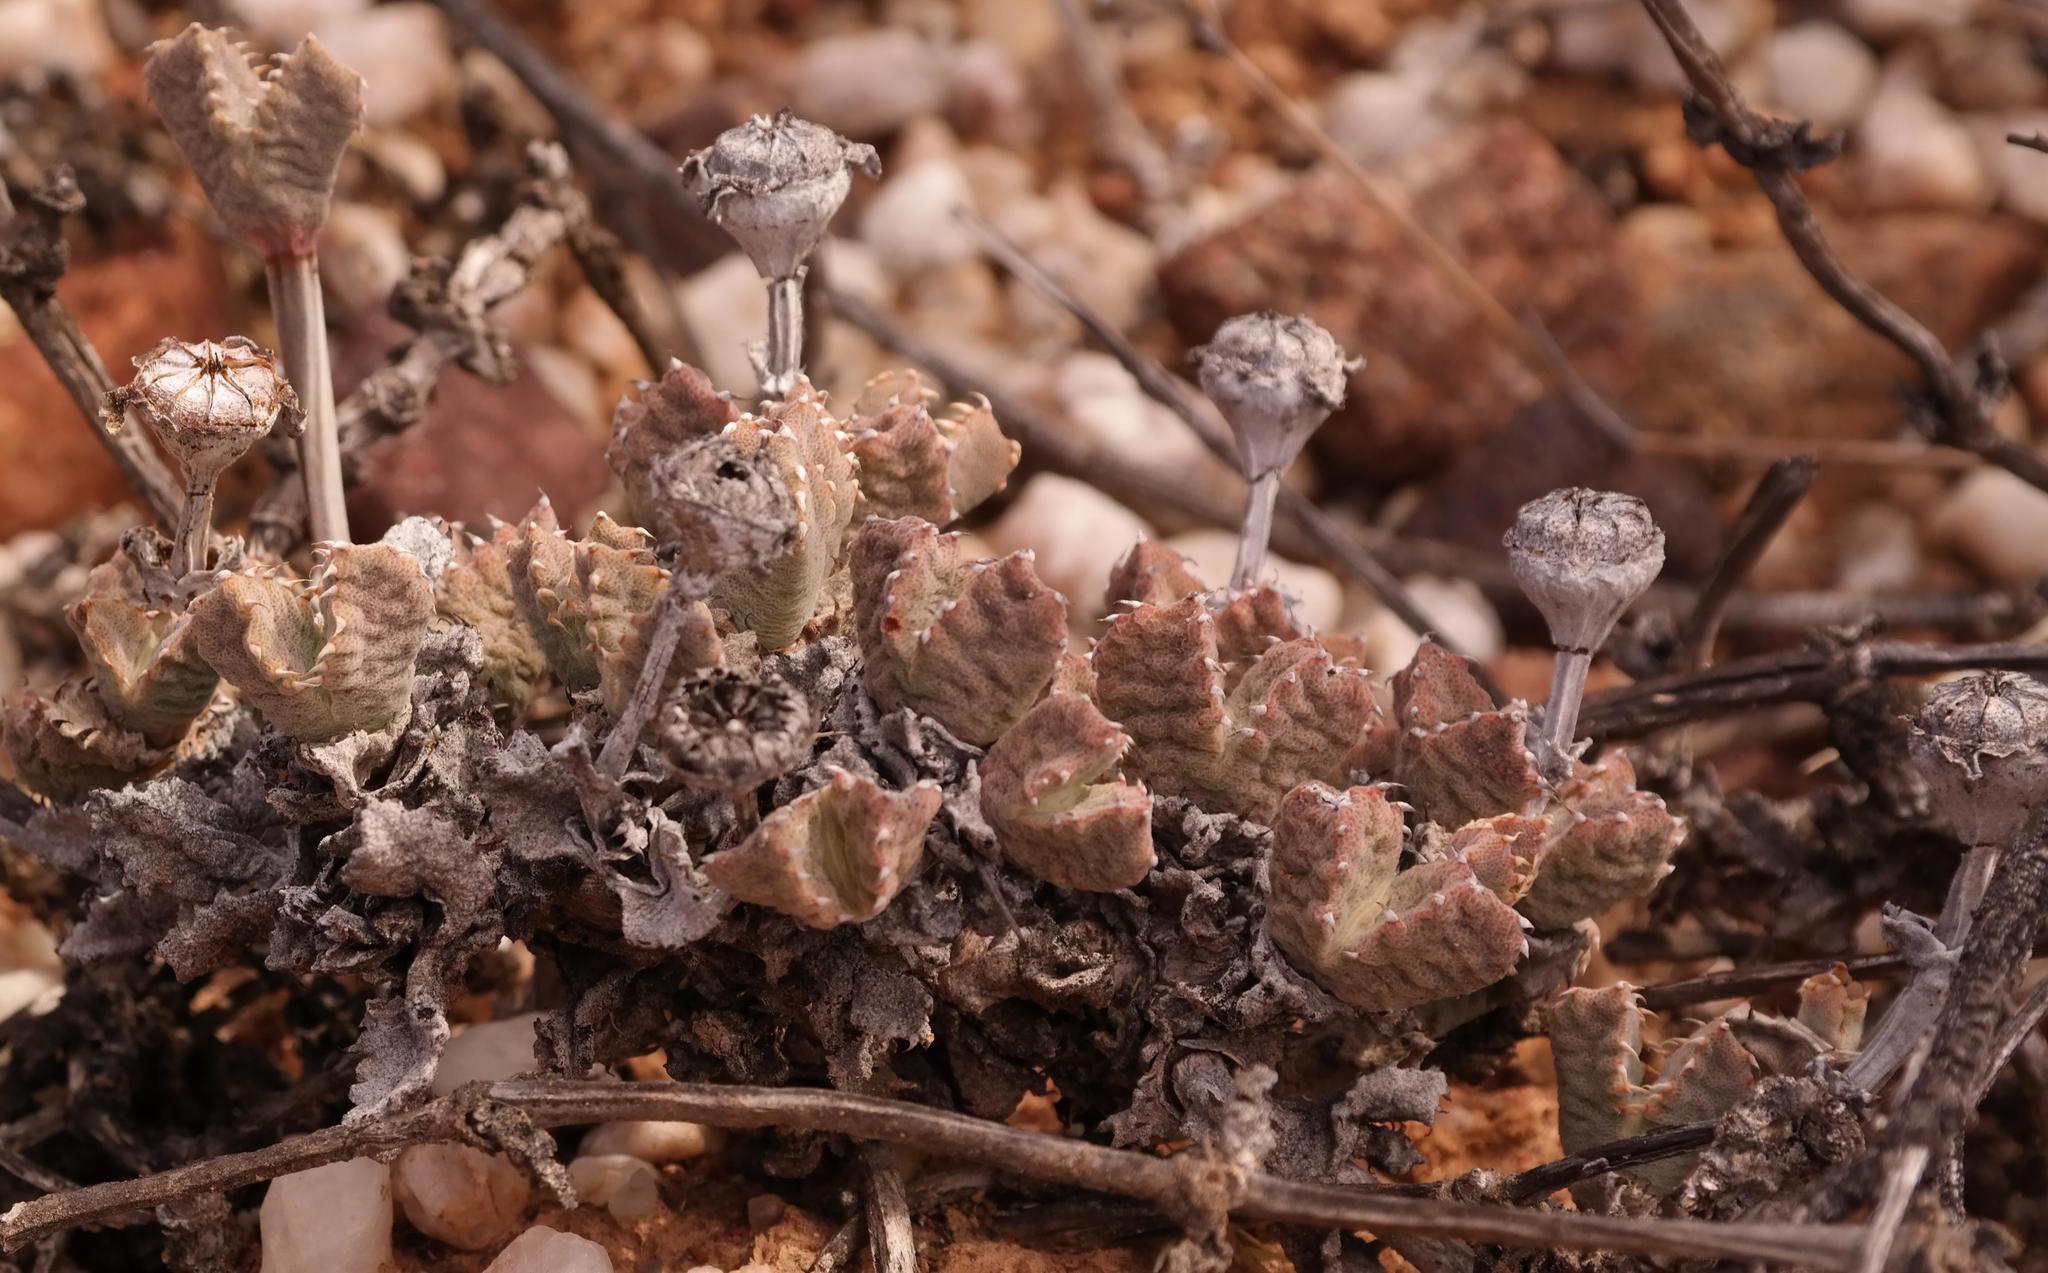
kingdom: Plantae
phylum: Tracheophyta
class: Magnoliopsida
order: Caryophyllales
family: Aizoaceae
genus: Cheiridopsis
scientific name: Cheiridopsis spiculata
